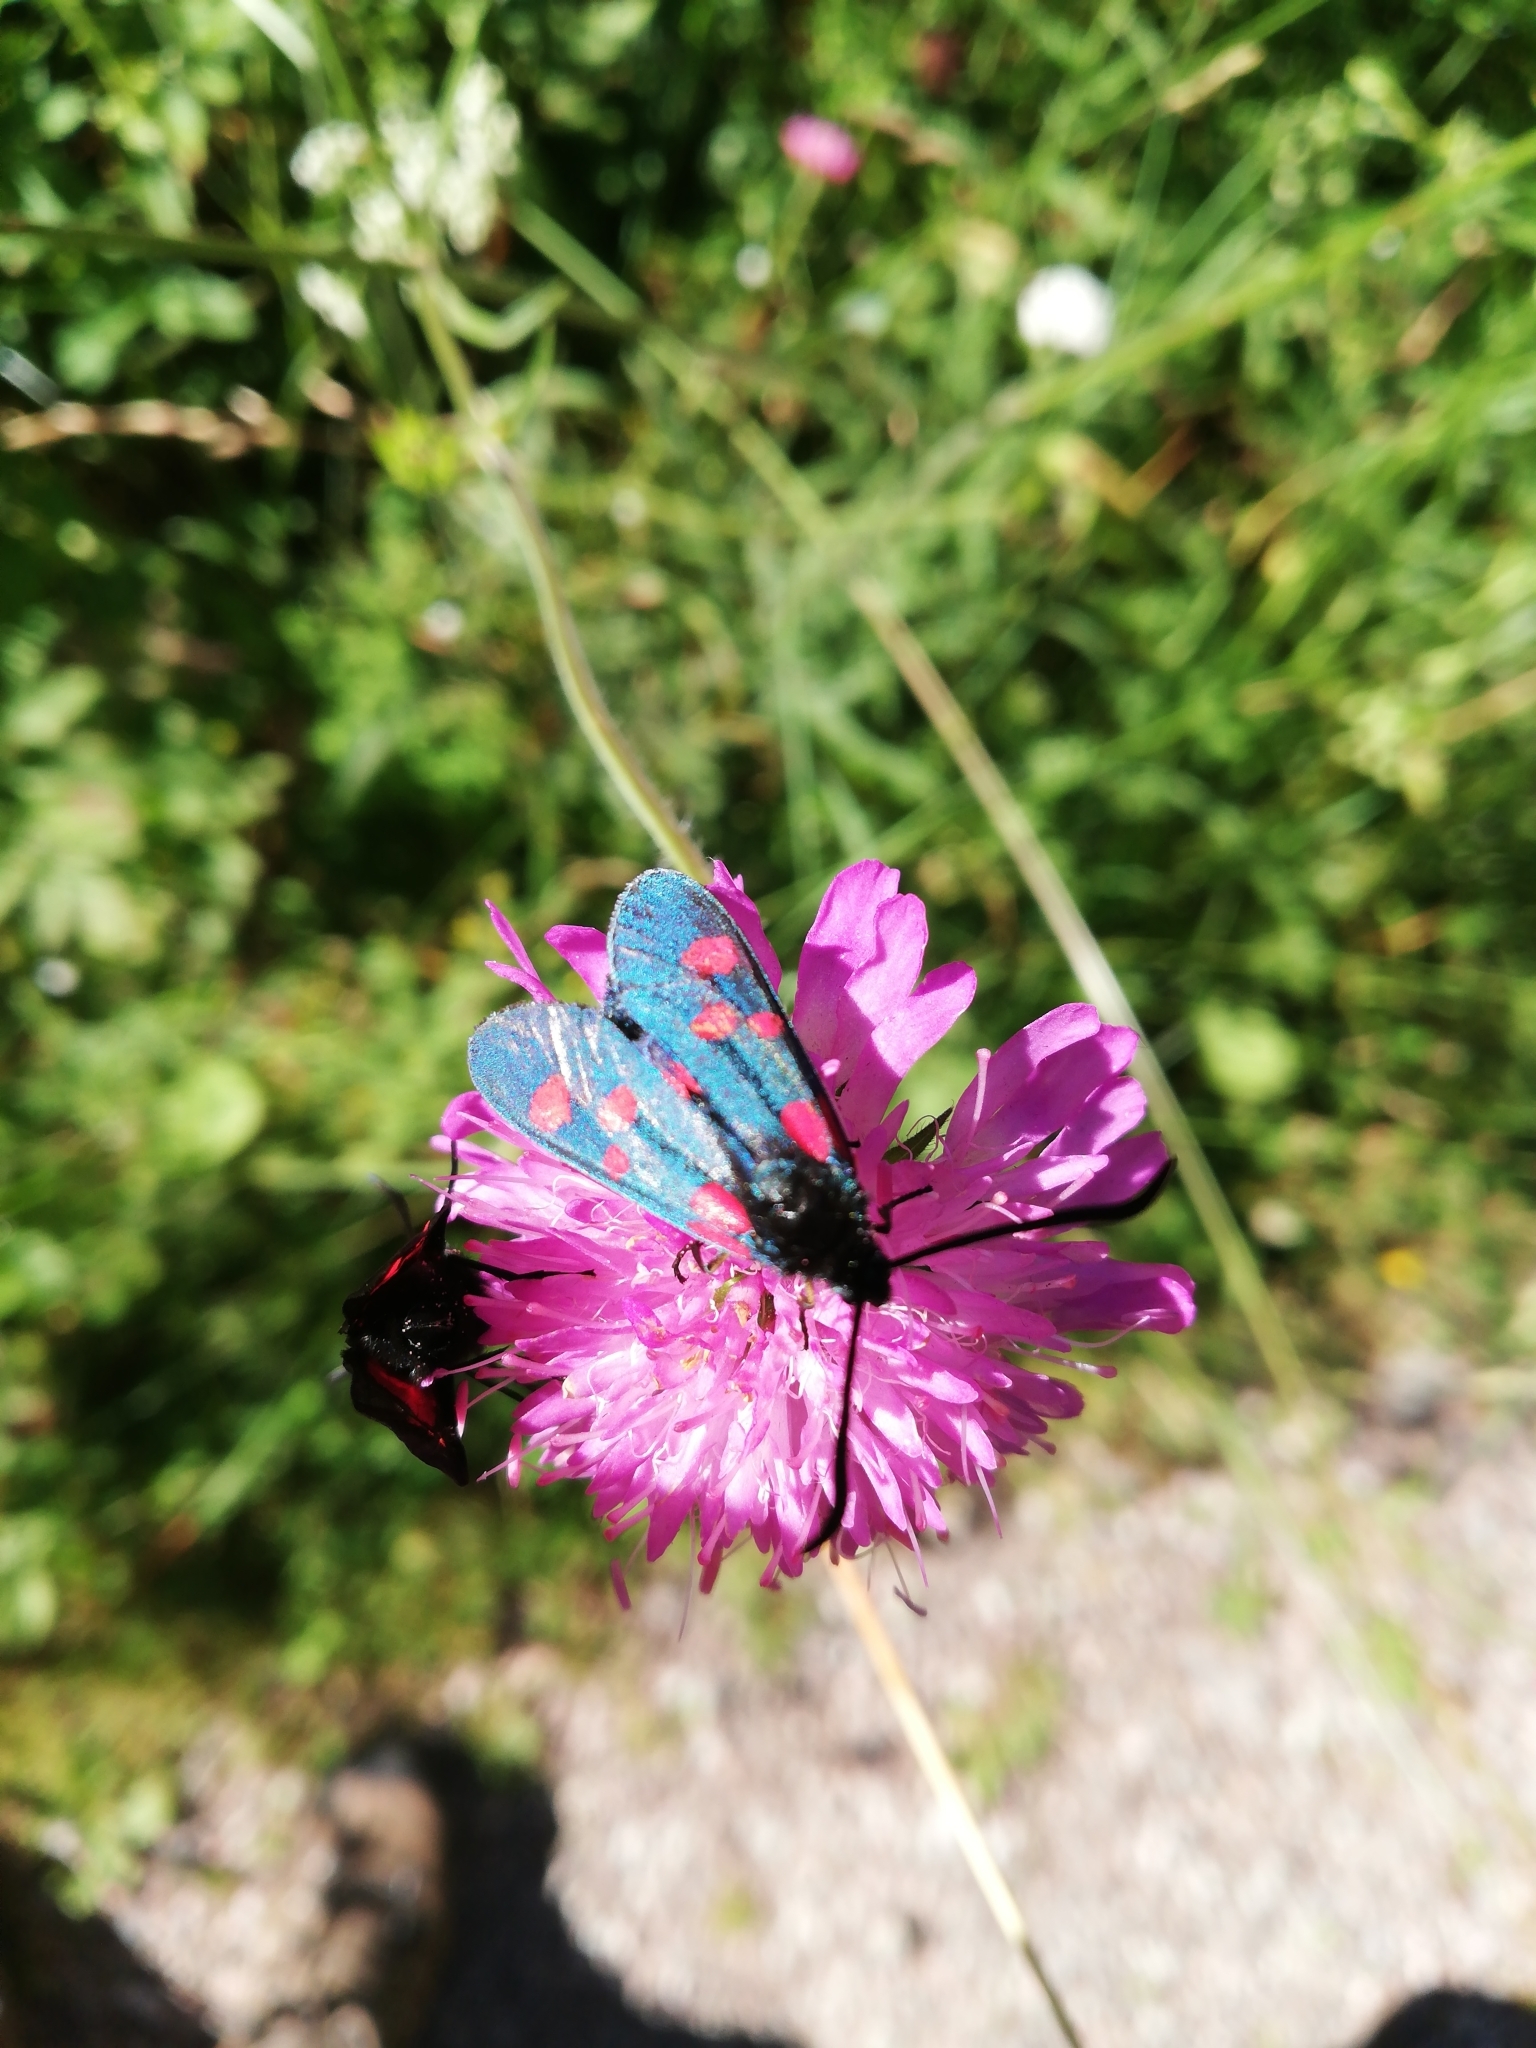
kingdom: Animalia
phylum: Arthropoda
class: Insecta
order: Lepidoptera
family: Zygaenidae
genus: Zygaena
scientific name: Zygaena lonicerae
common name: Narrow-bordered five-spot burnet
